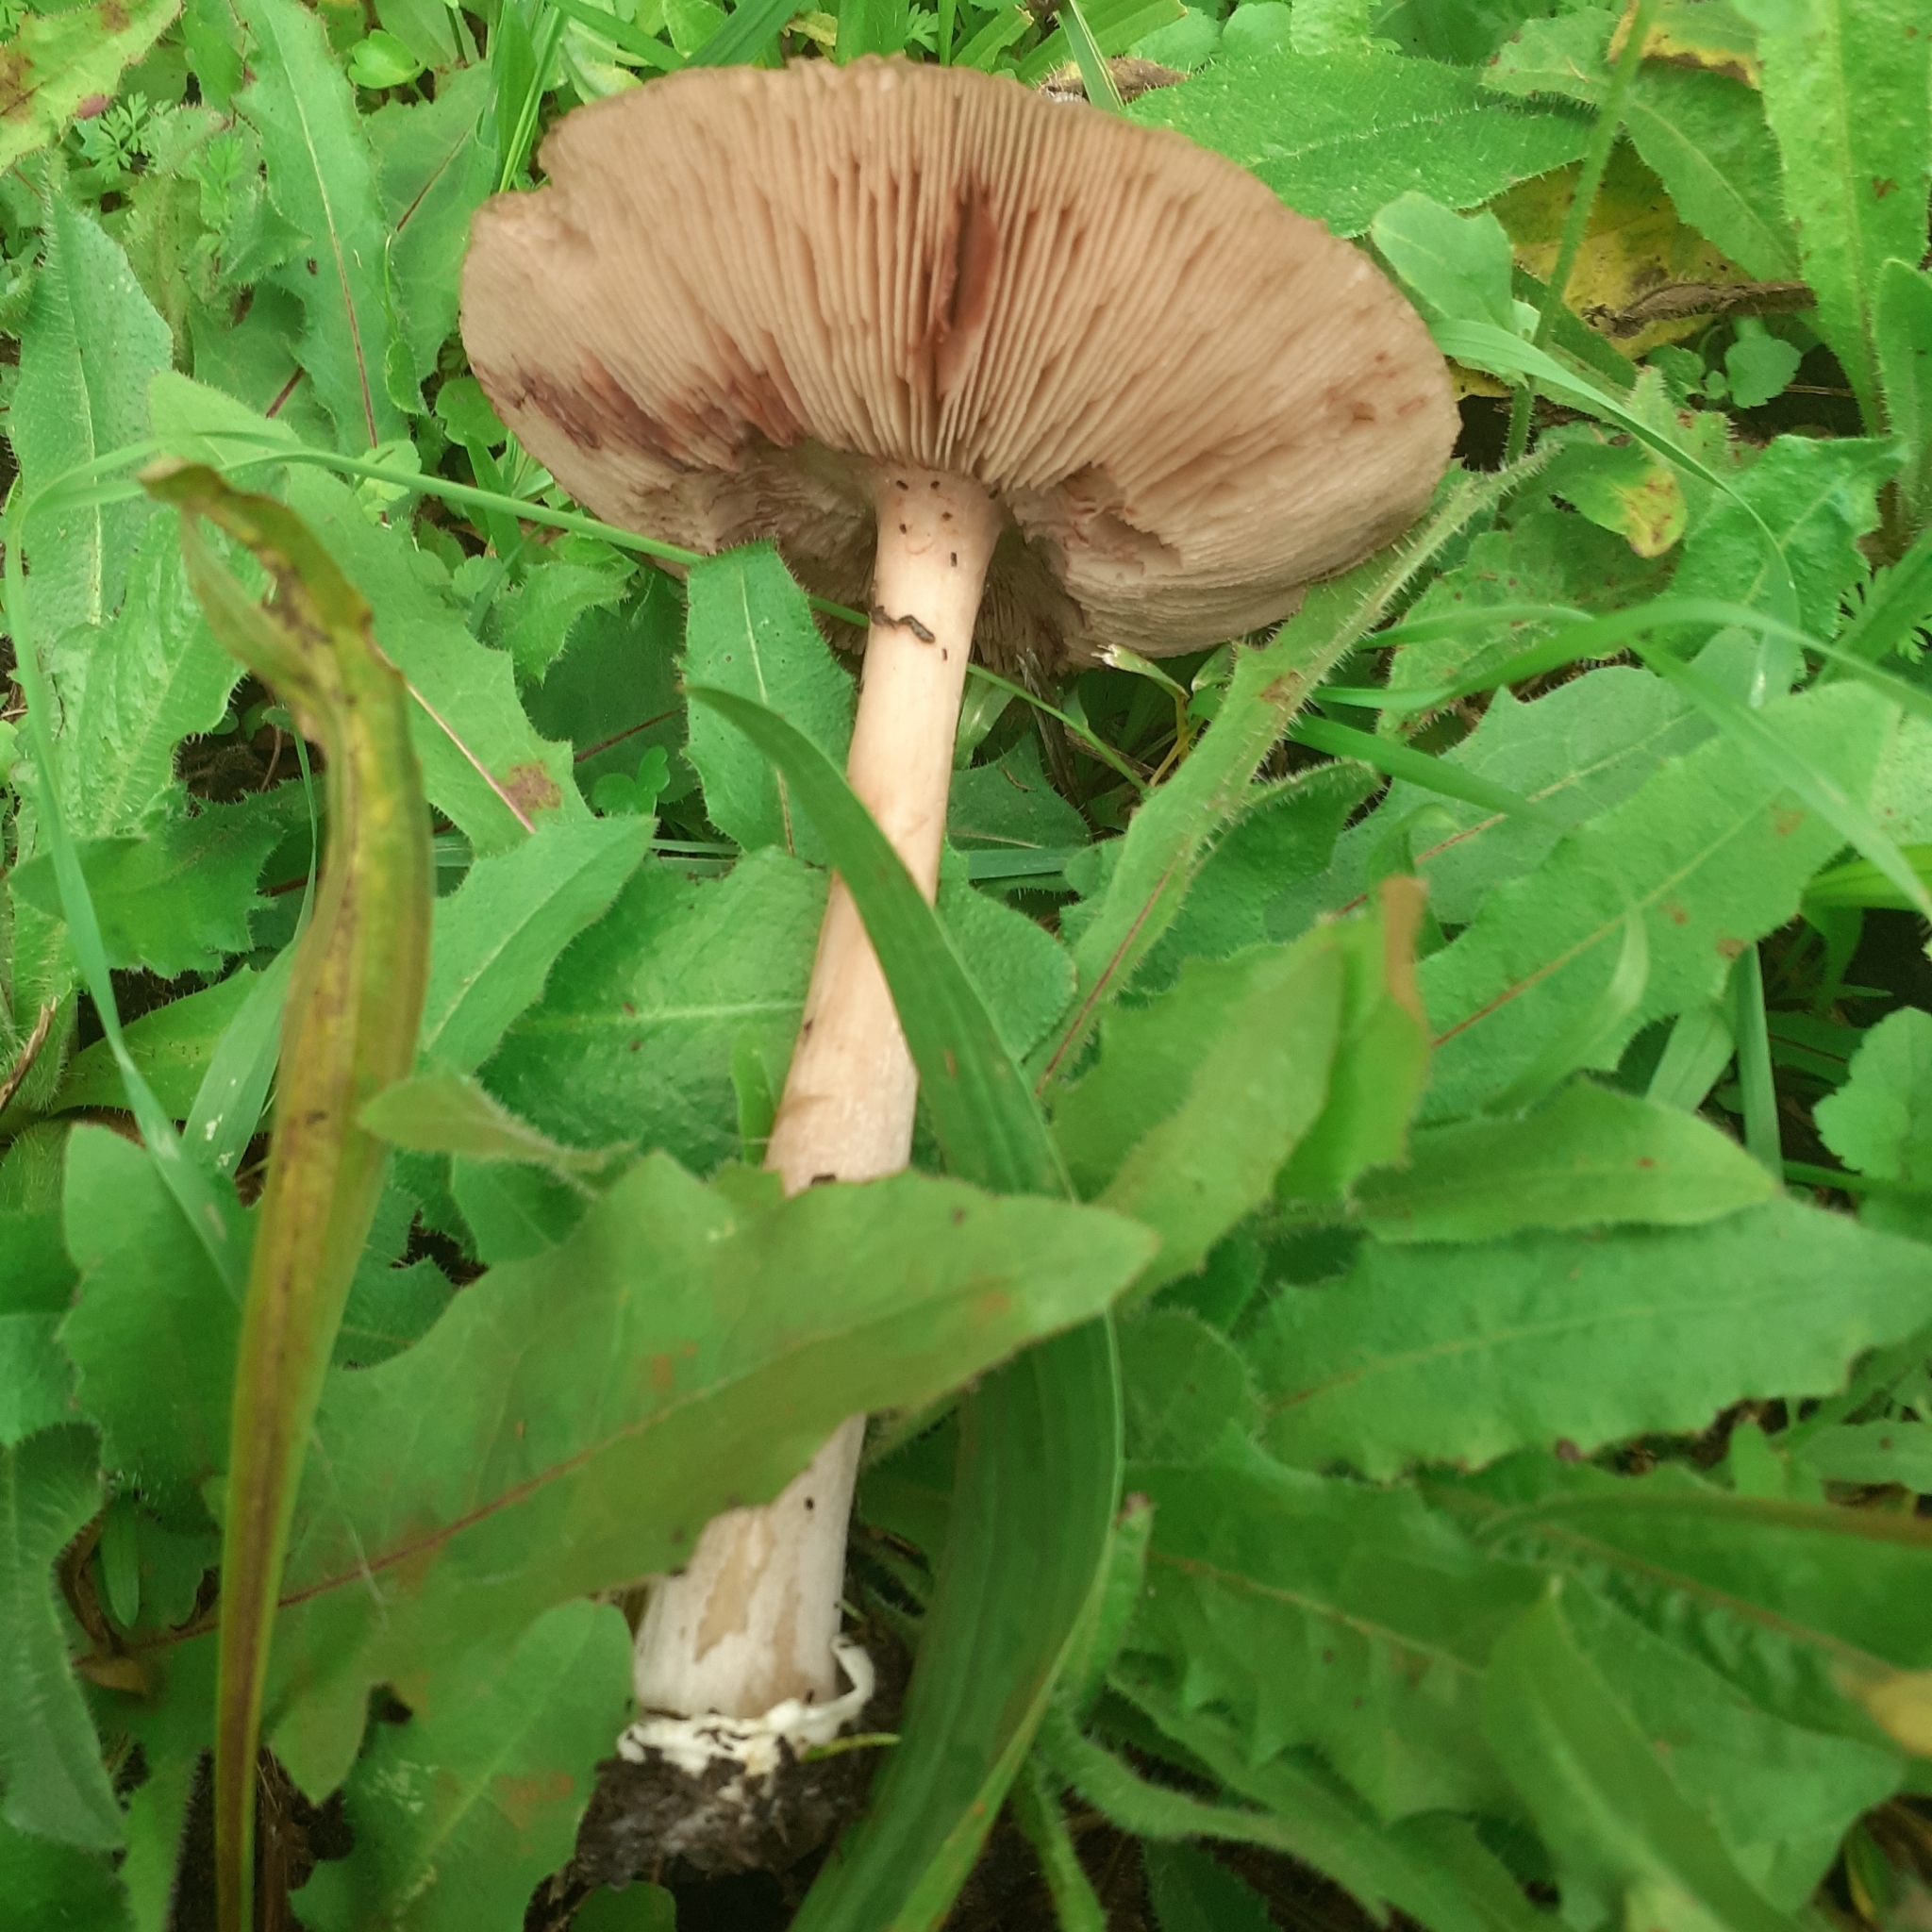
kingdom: Fungi
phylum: Basidiomycota
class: Agaricomycetes
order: Agaricales
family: Pluteaceae
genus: Volvopluteus
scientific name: Volvopluteus gloiocephalus
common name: Stubble rosegill
